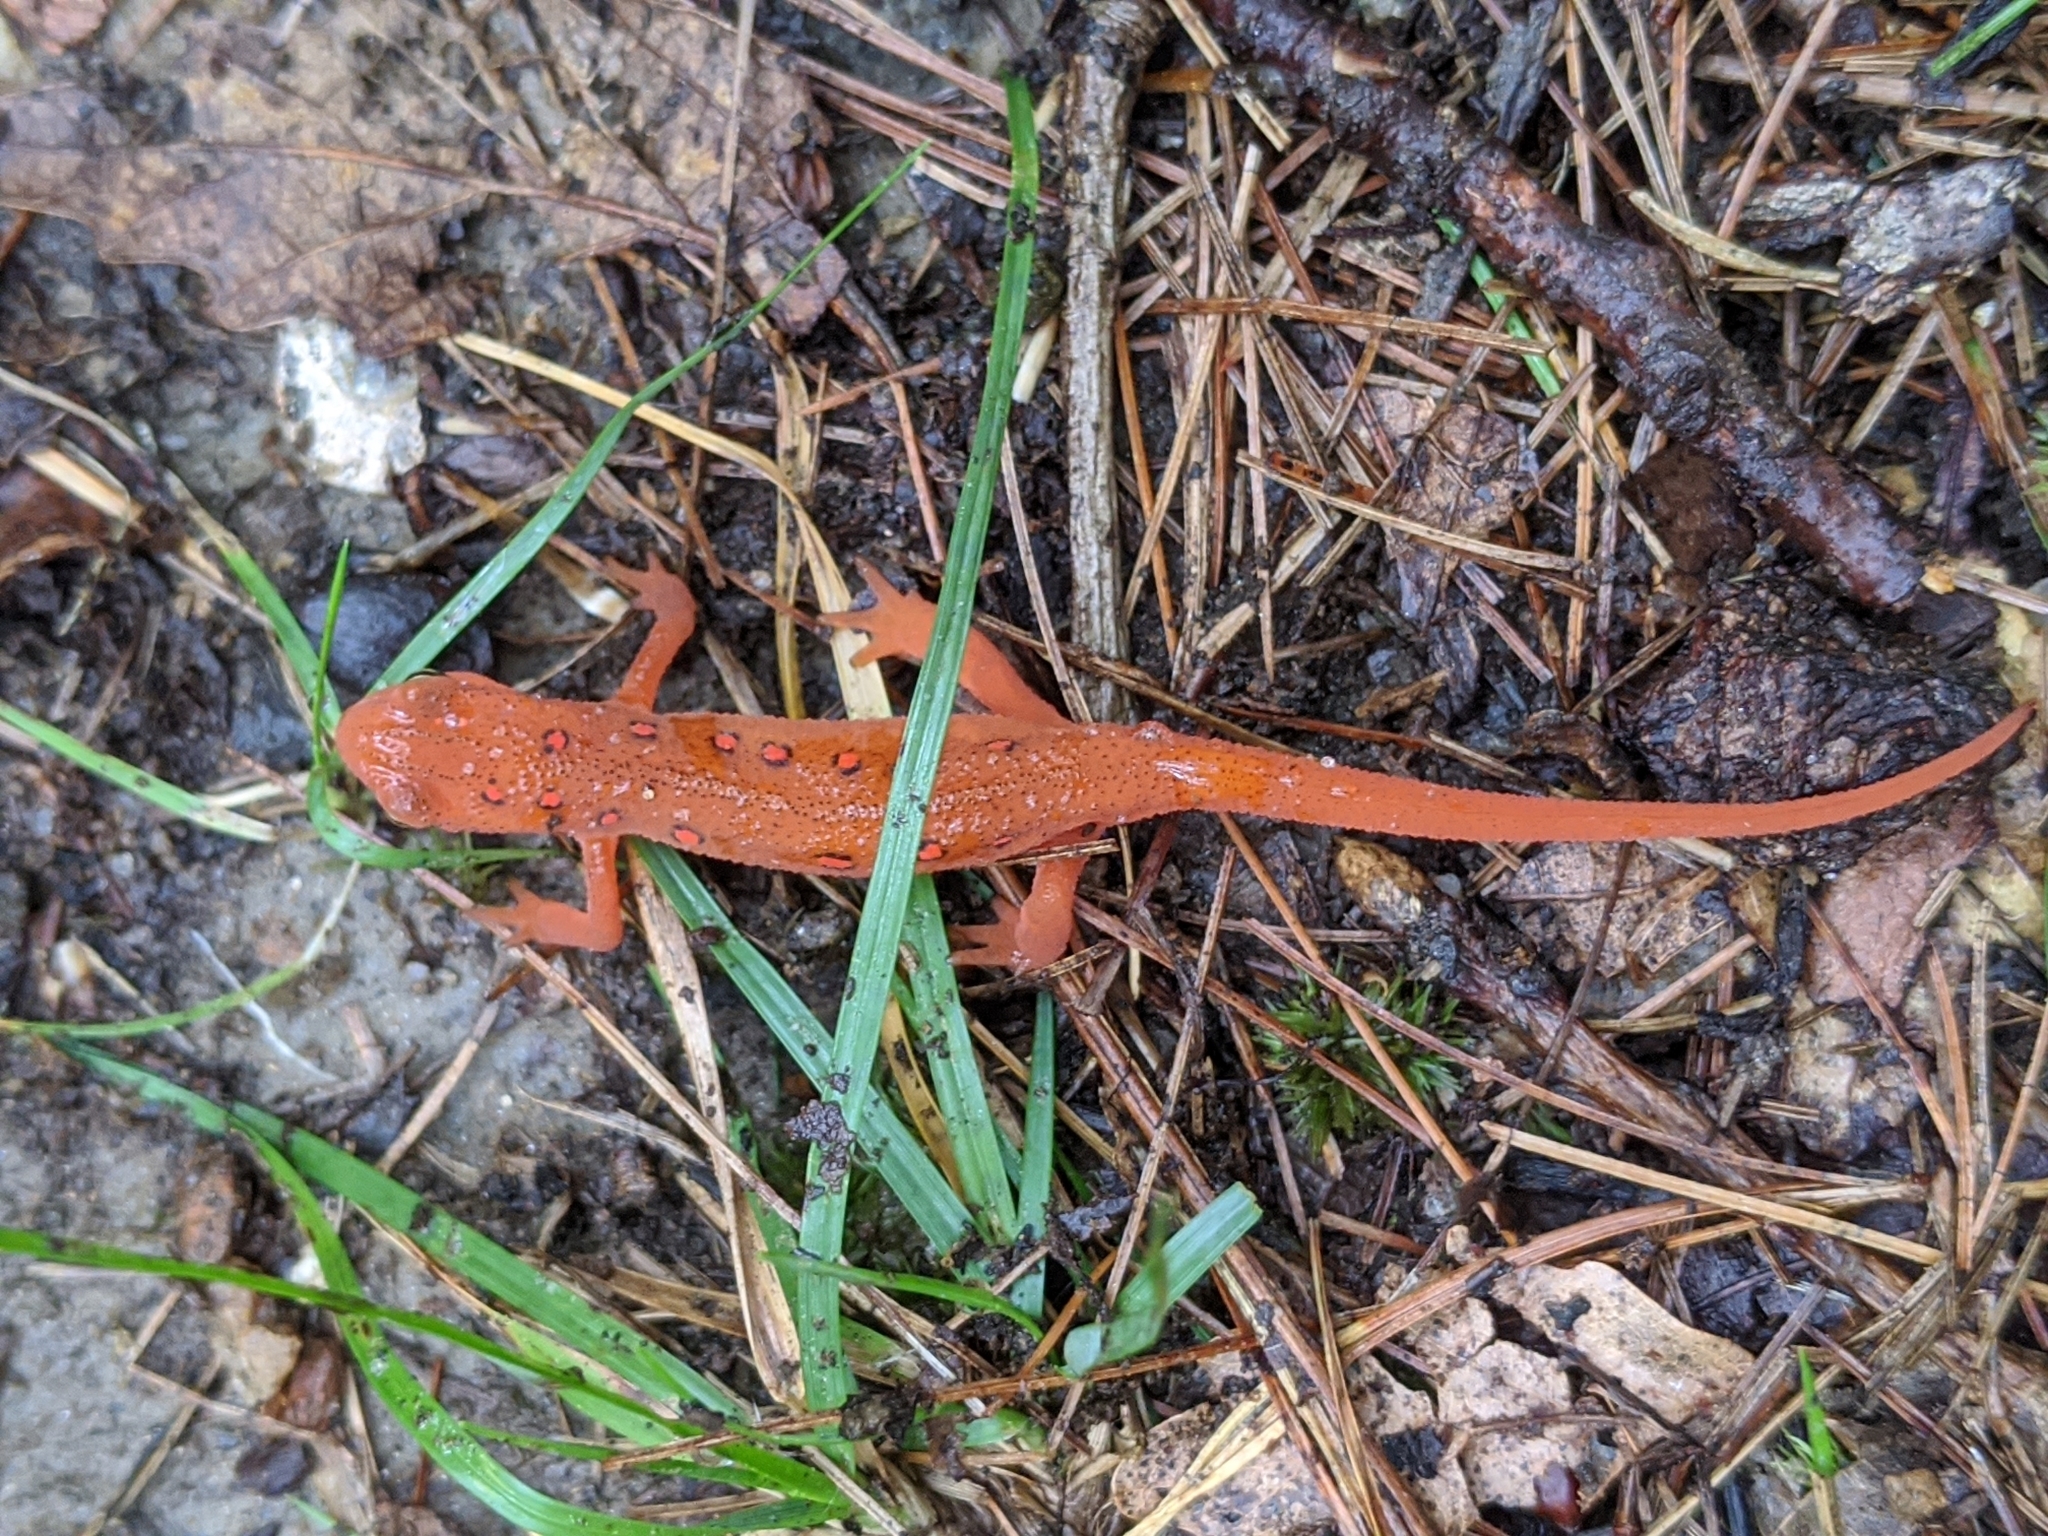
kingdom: Animalia
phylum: Chordata
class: Amphibia
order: Caudata
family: Salamandridae
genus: Notophthalmus
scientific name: Notophthalmus viridescens
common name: Eastern newt
